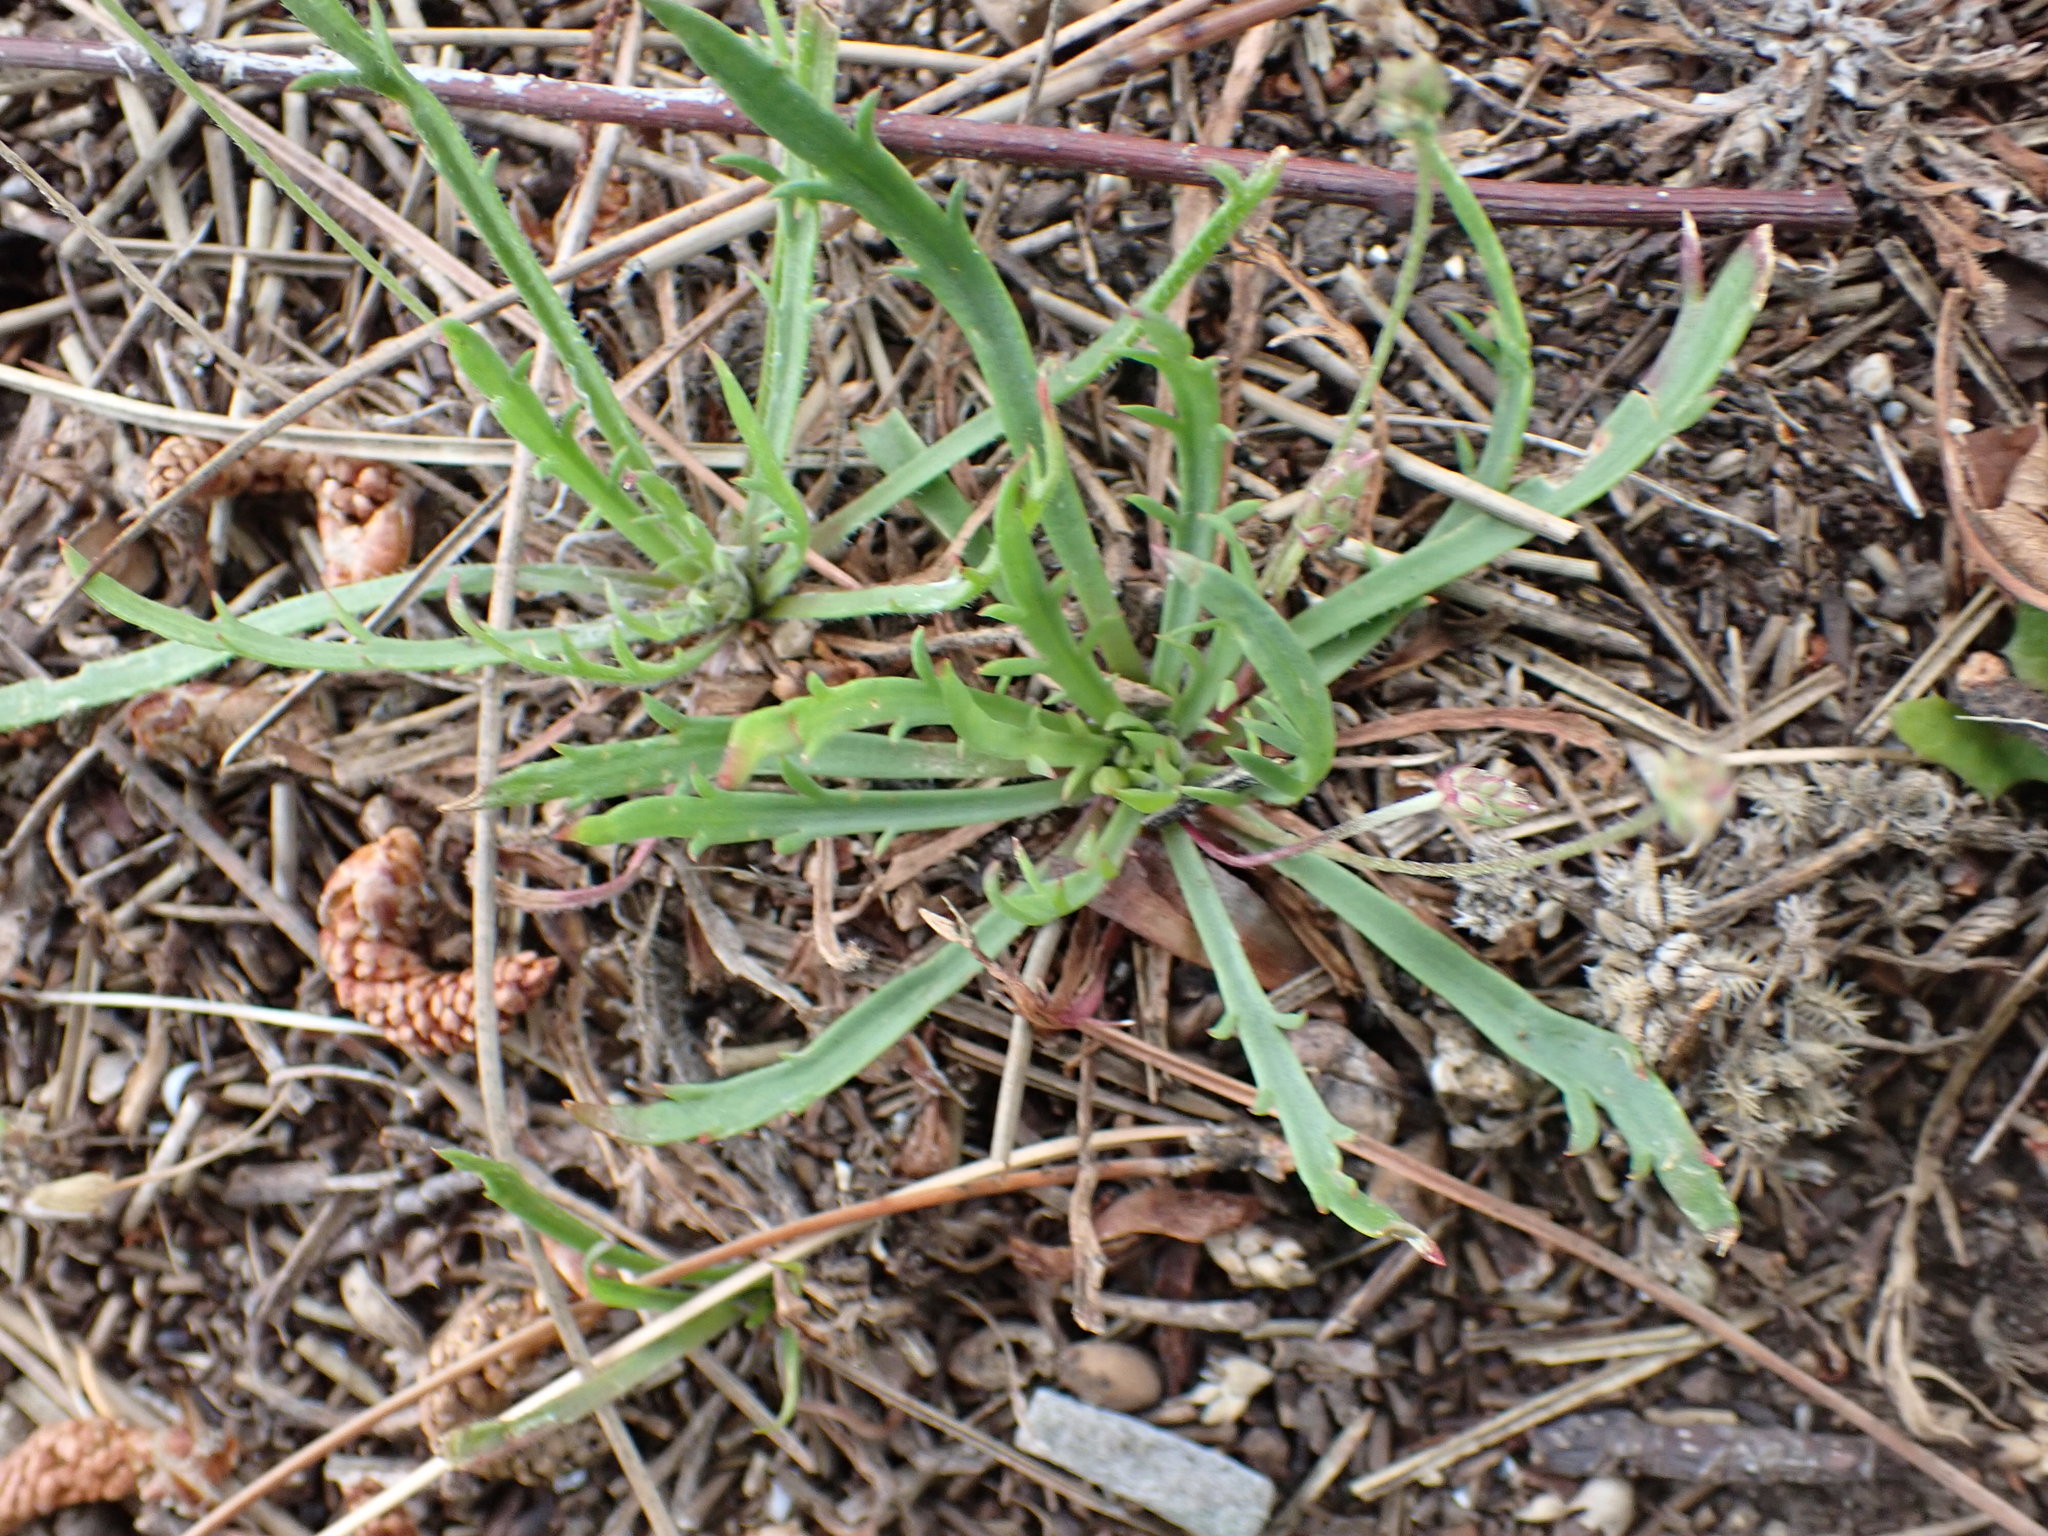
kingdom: Plantae
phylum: Tracheophyta
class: Magnoliopsida
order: Lamiales
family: Plantaginaceae
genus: Plantago
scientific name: Plantago coronopus
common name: Buck's-horn plantain
